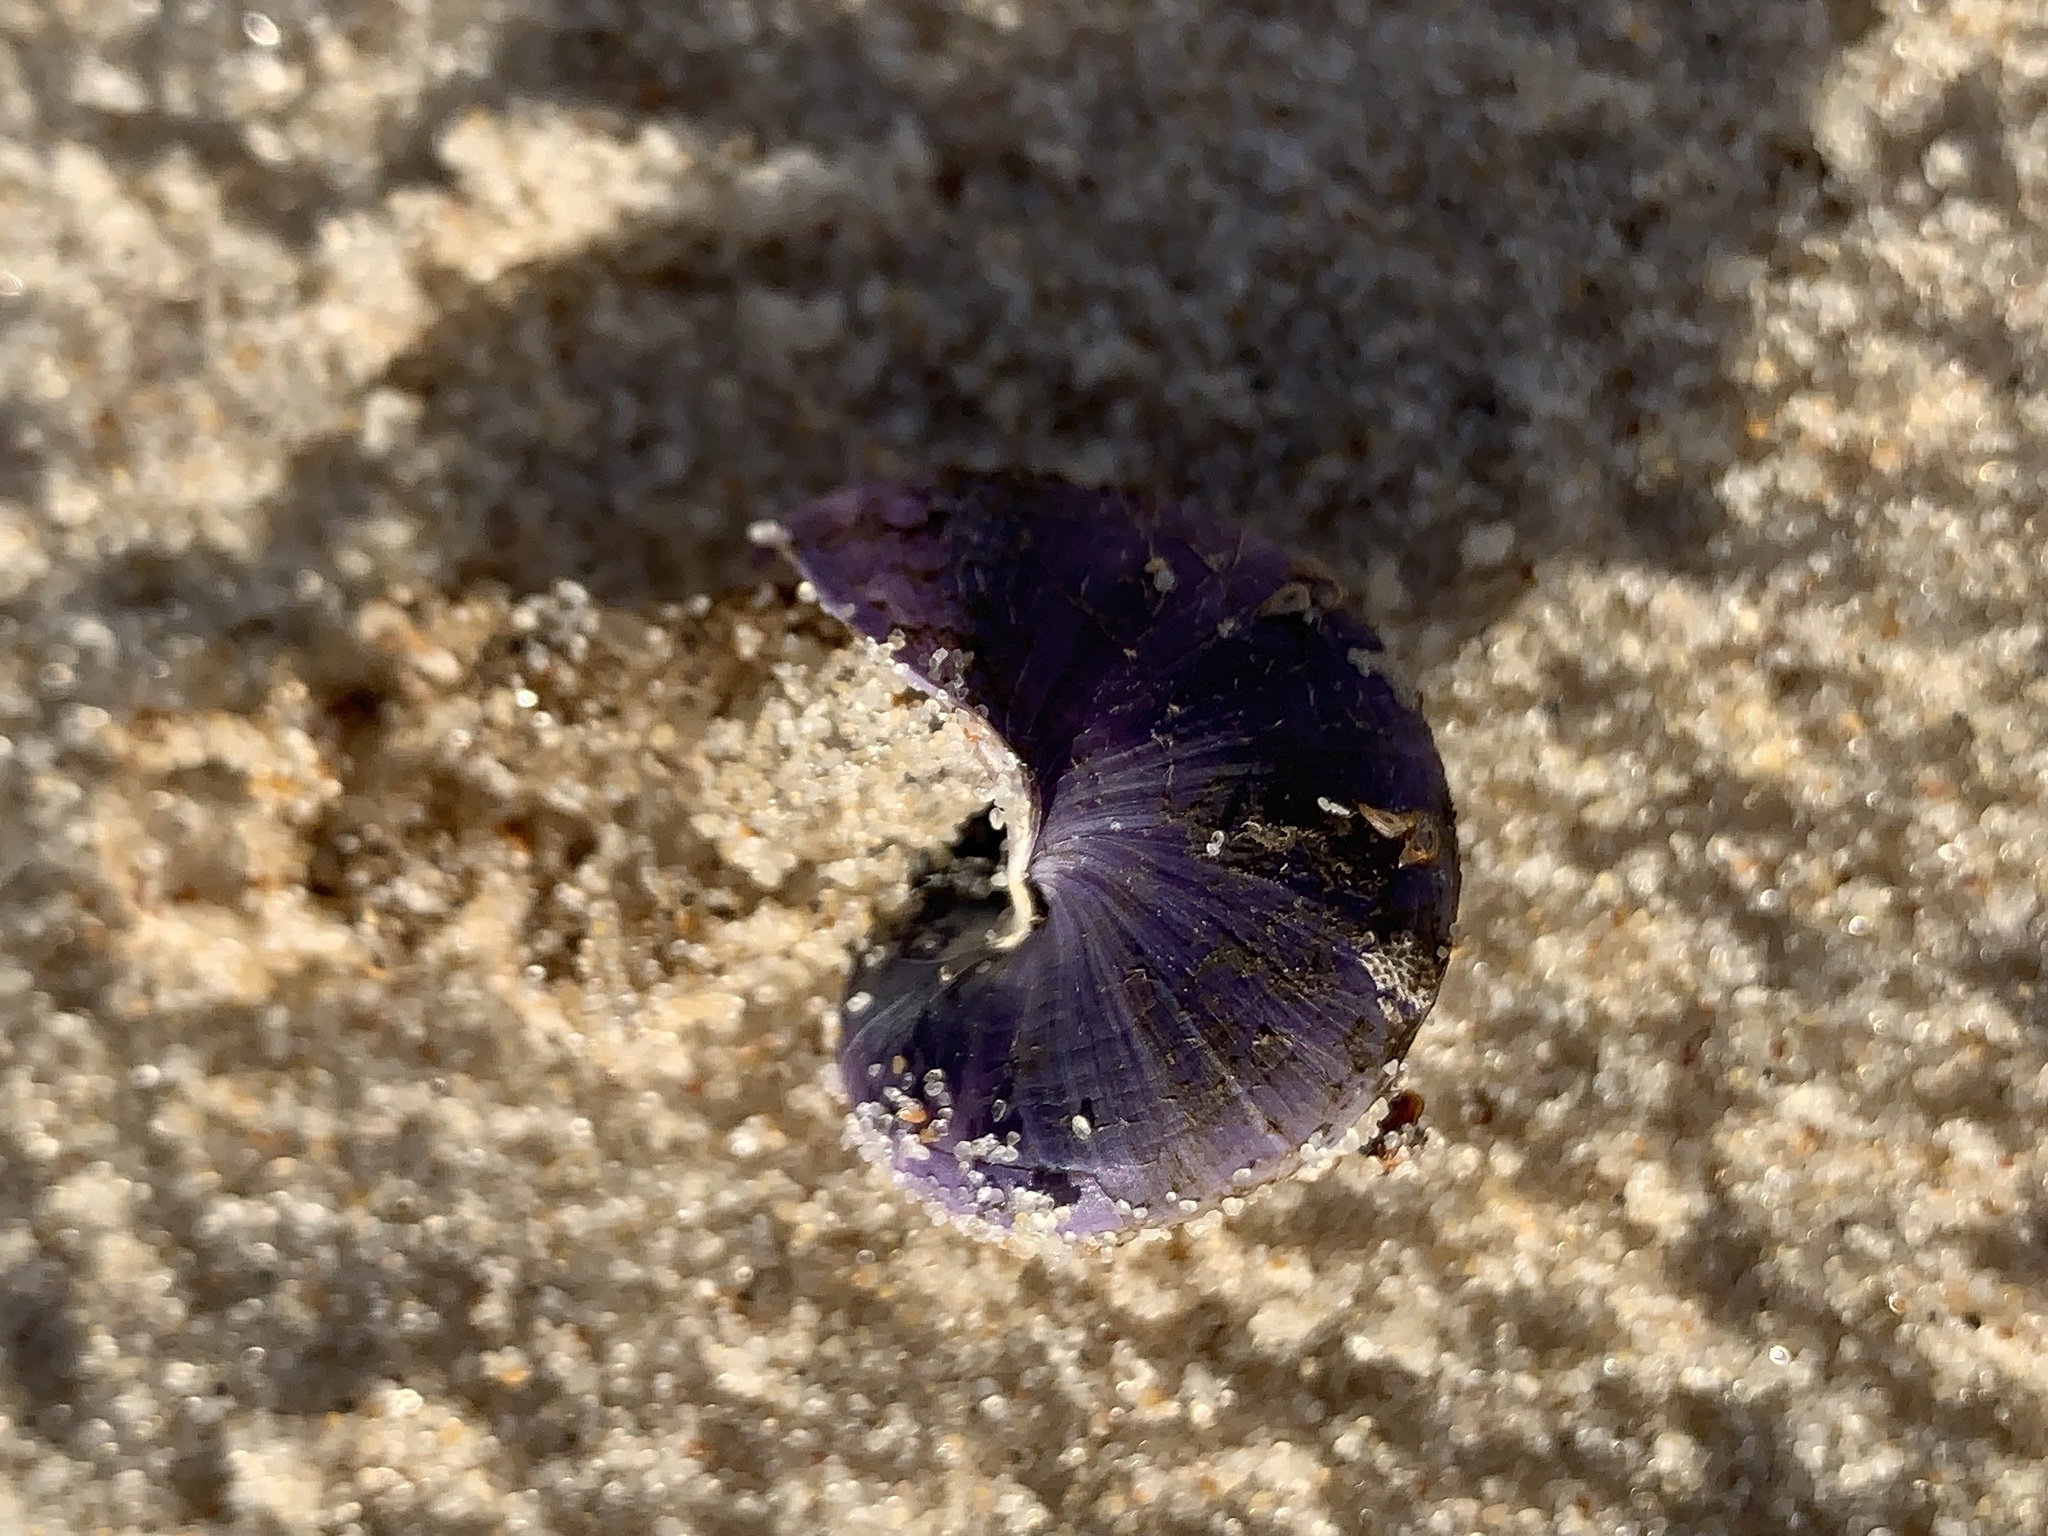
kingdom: Animalia
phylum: Mollusca
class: Gastropoda
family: Epitoniidae
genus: Janthina
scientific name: Janthina janthina
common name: Common janthina
